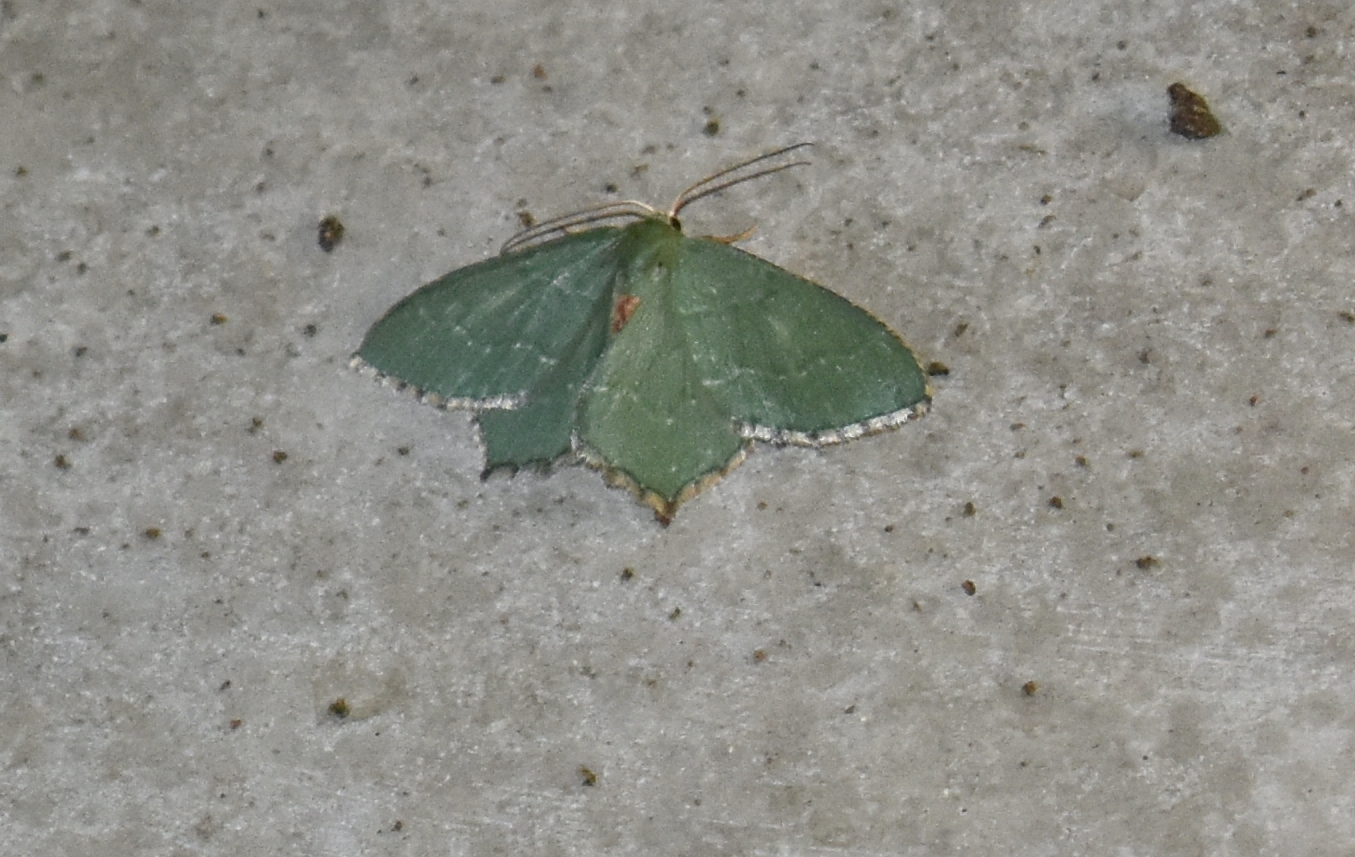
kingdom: Animalia
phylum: Arthropoda
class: Insecta
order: Lepidoptera
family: Geometridae
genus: Hemithea
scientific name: Hemithea aestivaria
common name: Common emerald
